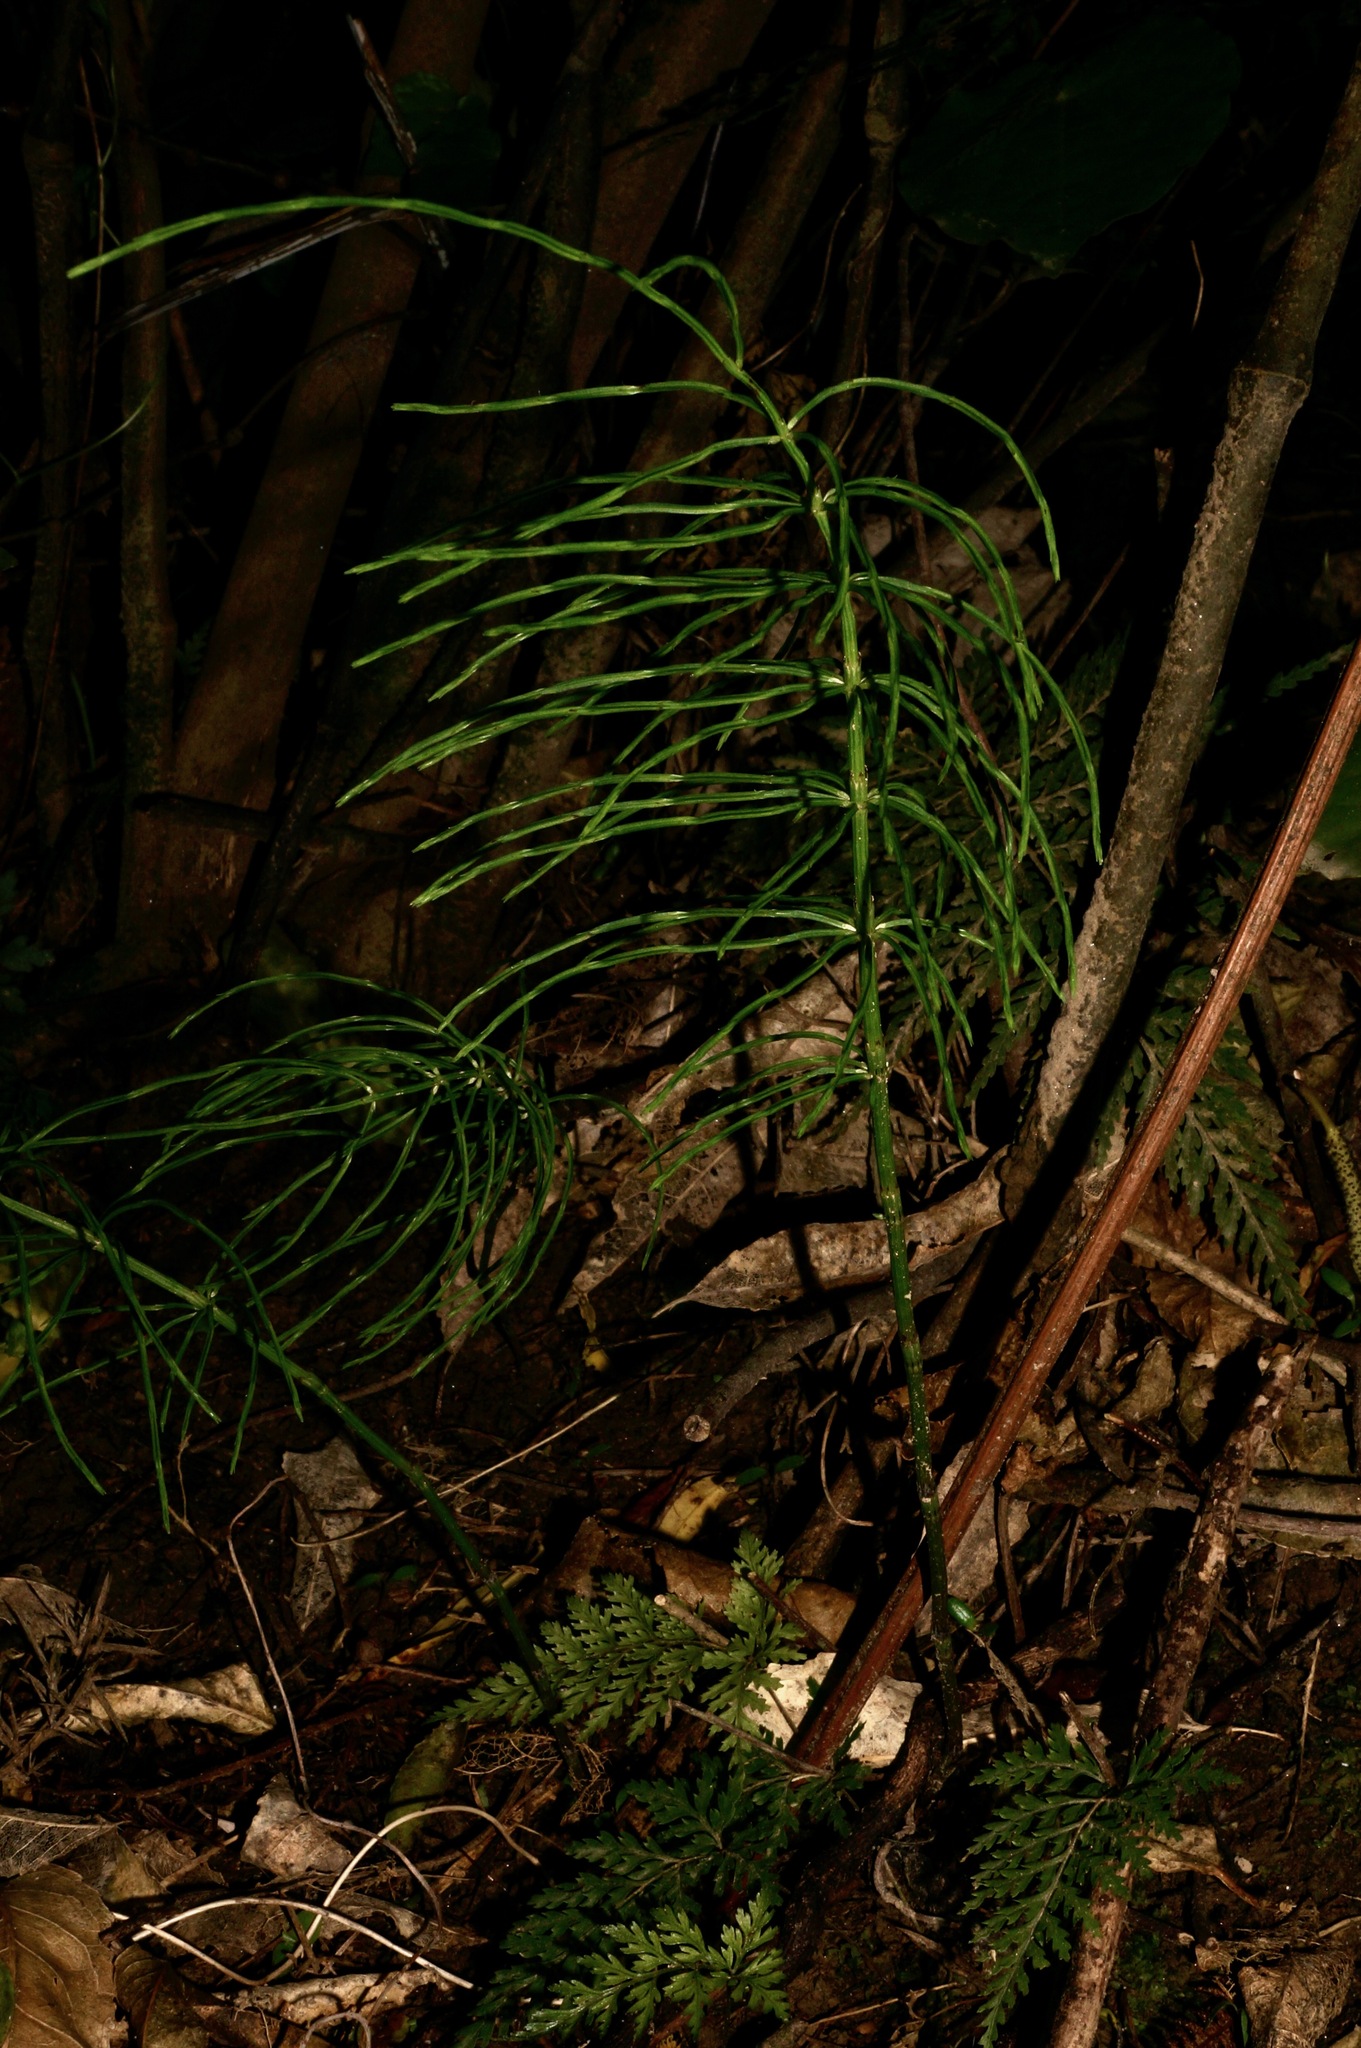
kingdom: Plantae
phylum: Tracheophyta
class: Polypodiopsida
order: Equisetales
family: Equisetaceae
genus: Equisetum
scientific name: Equisetum arvense
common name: Field horsetail
